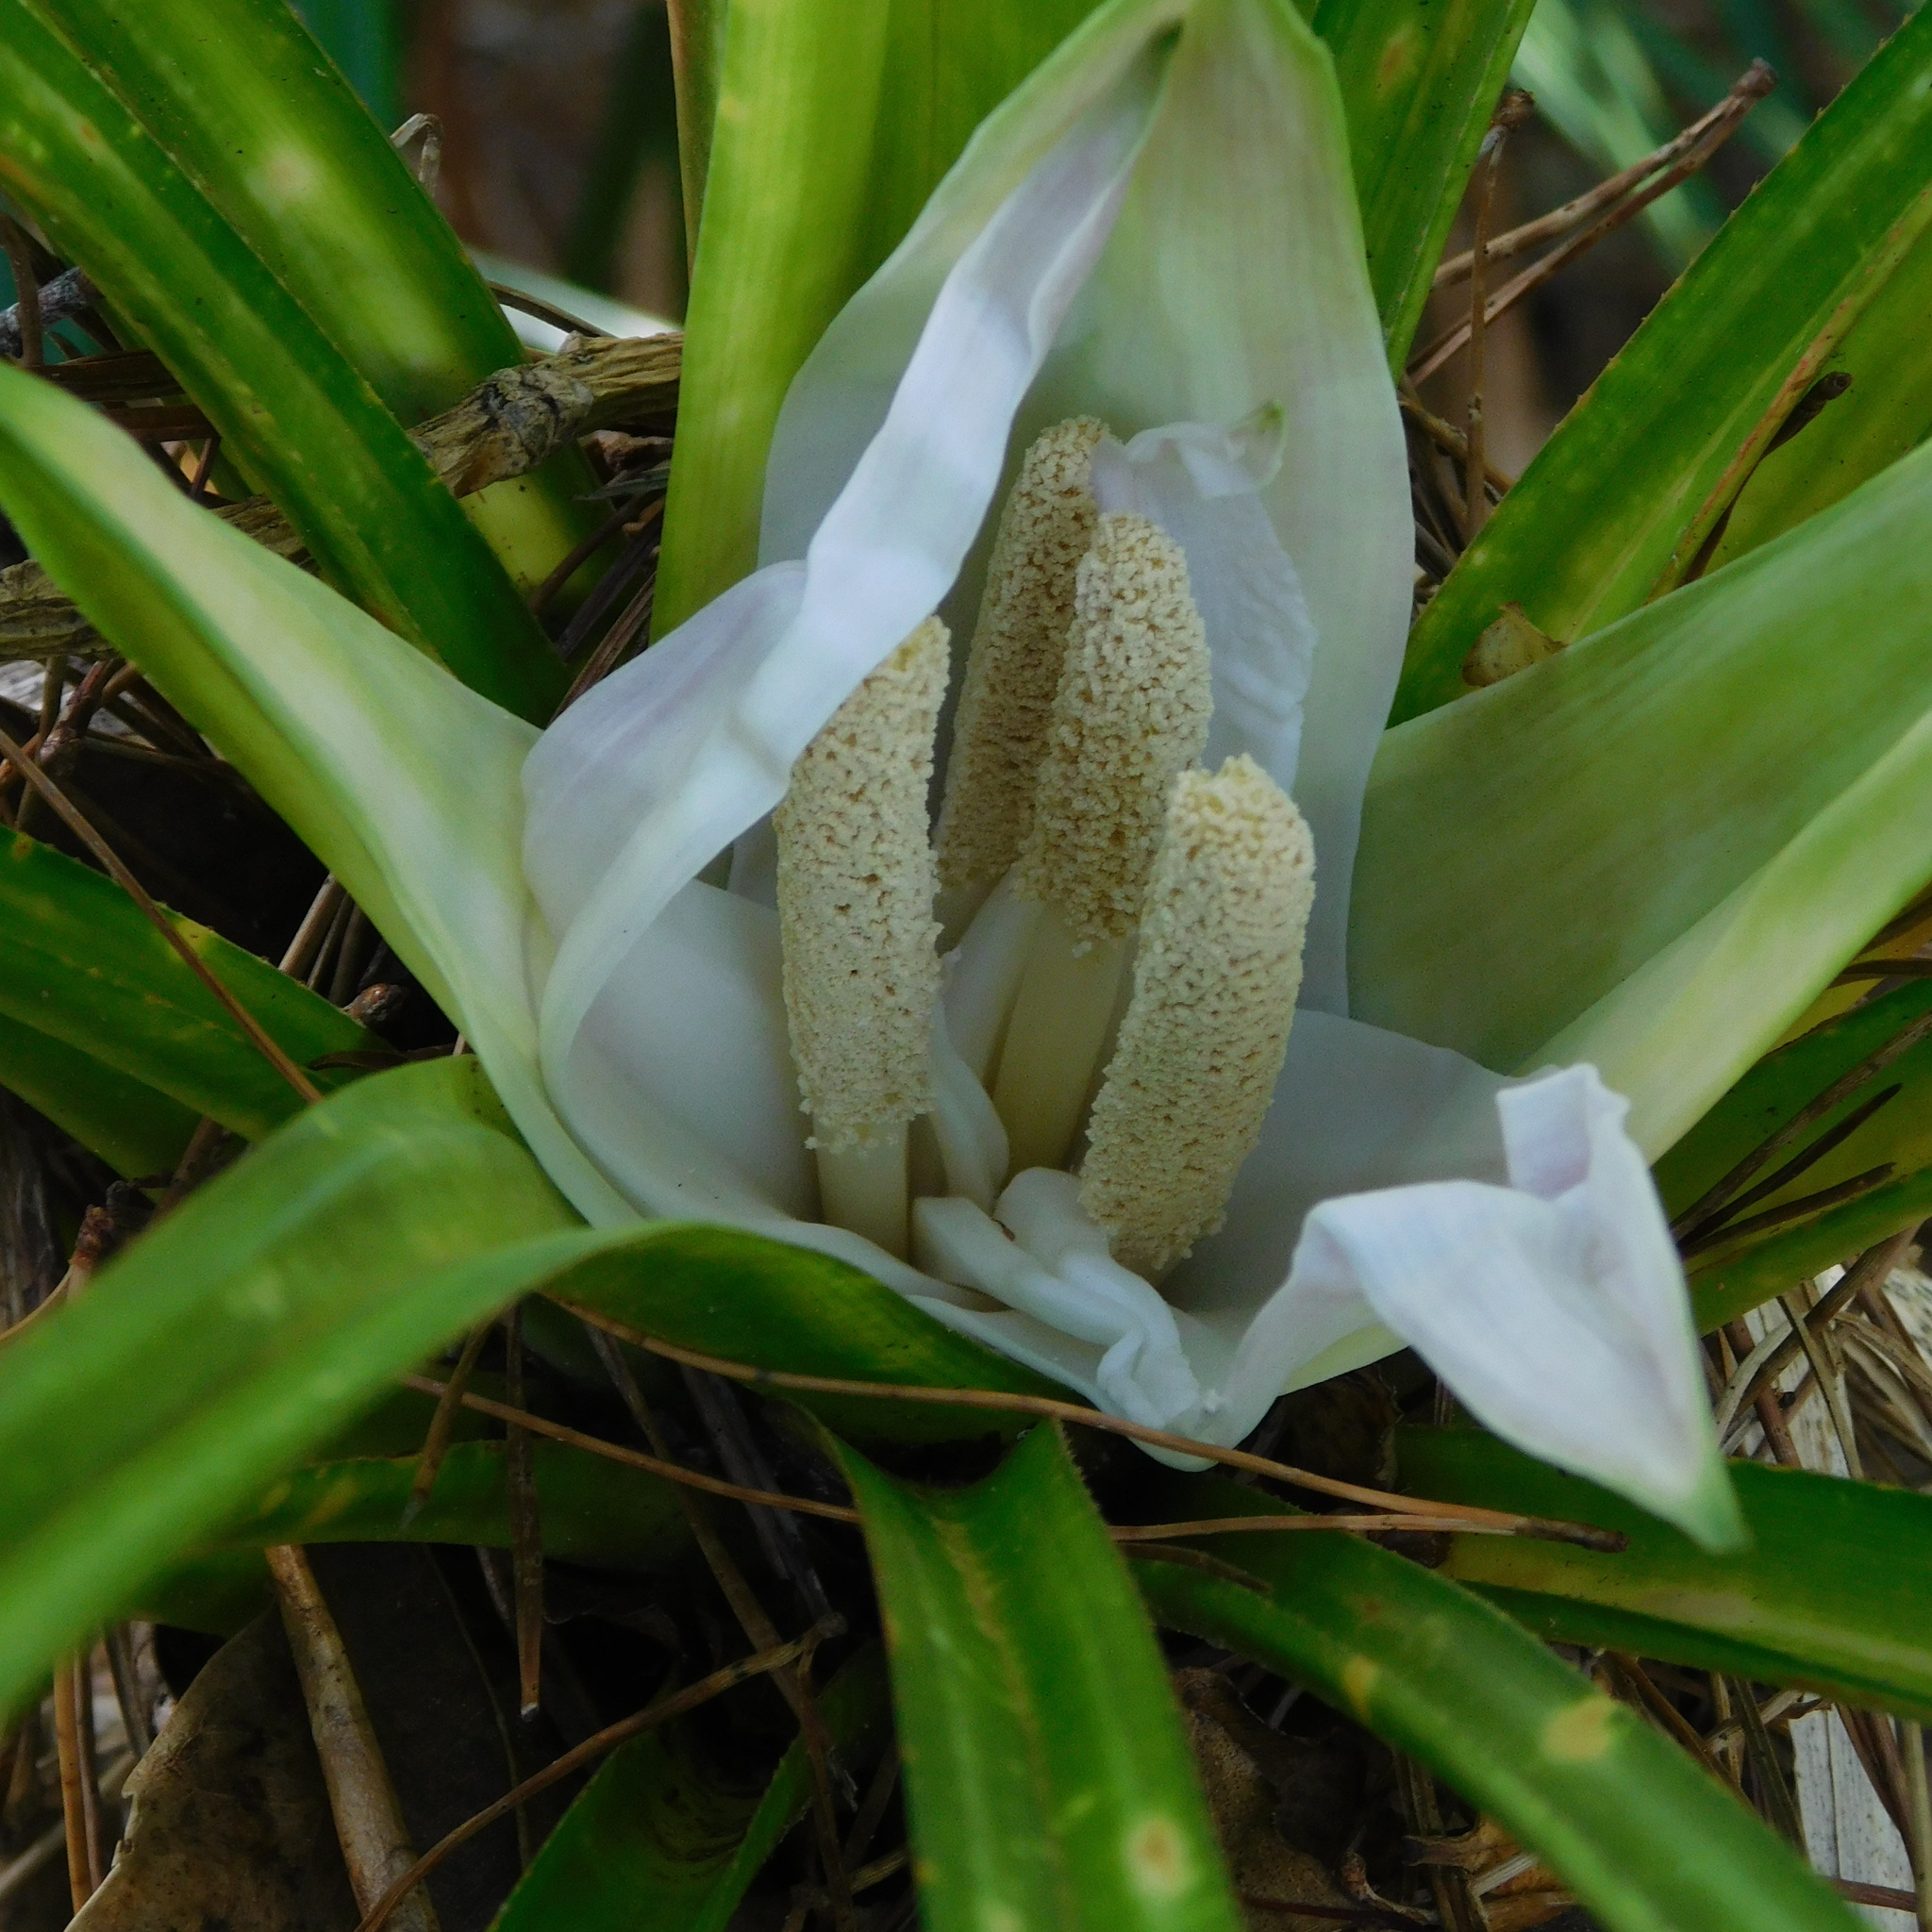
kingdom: Plantae
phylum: Tracheophyta
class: Liliopsida
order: Pandanales
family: Pandanaceae
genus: Freycinetia
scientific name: Freycinetia banksii
